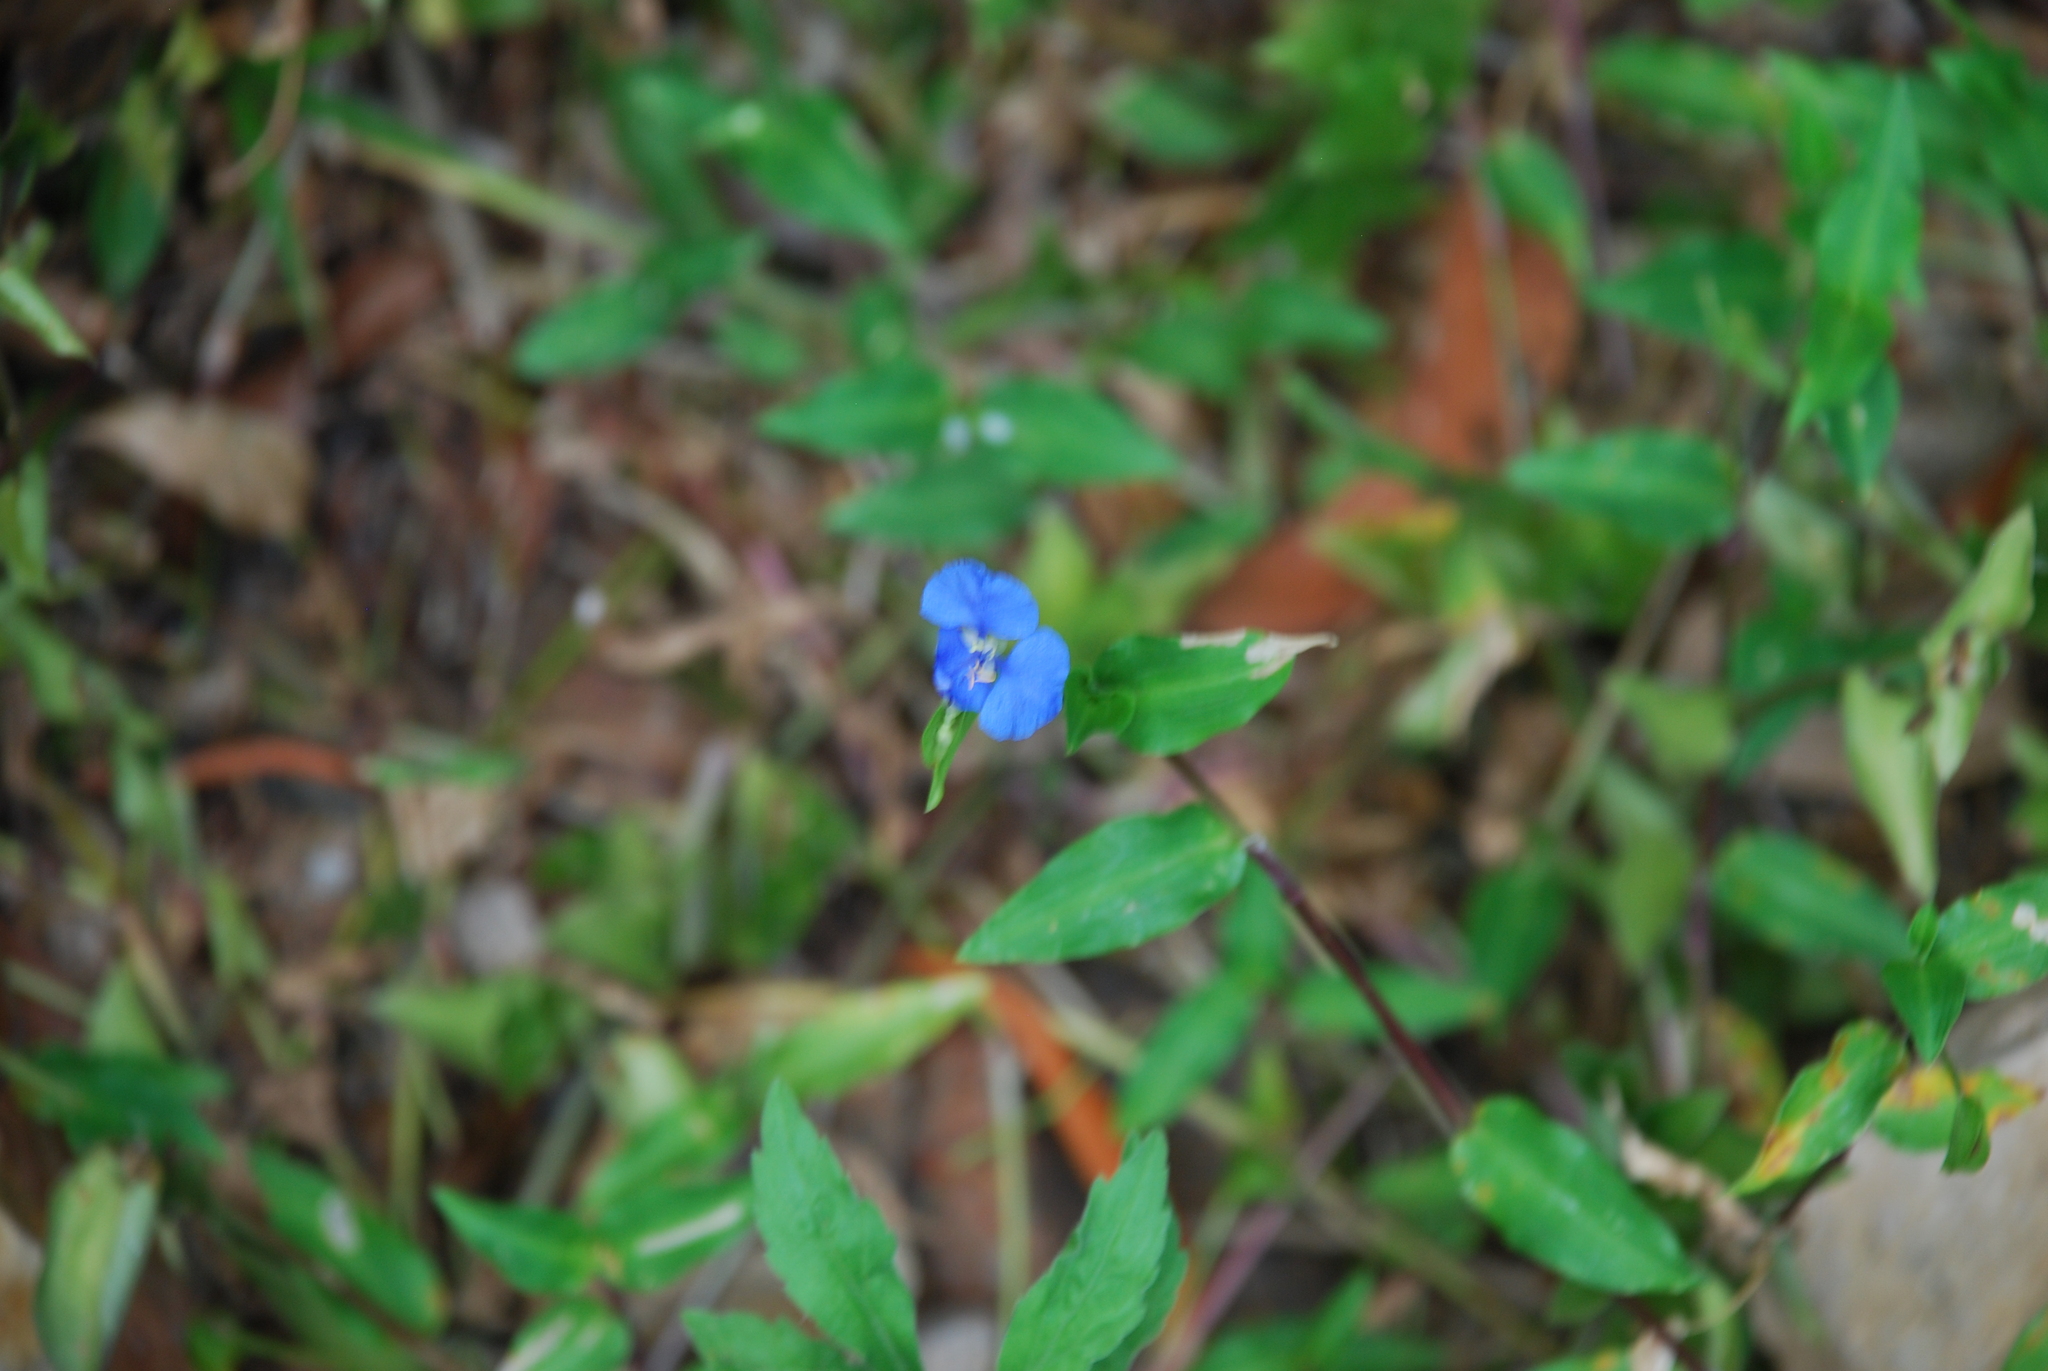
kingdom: Plantae
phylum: Tracheophyta
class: Liliopsida
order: Commelinales
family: Commelinaceae
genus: Commelina
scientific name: Commelina cyanea
